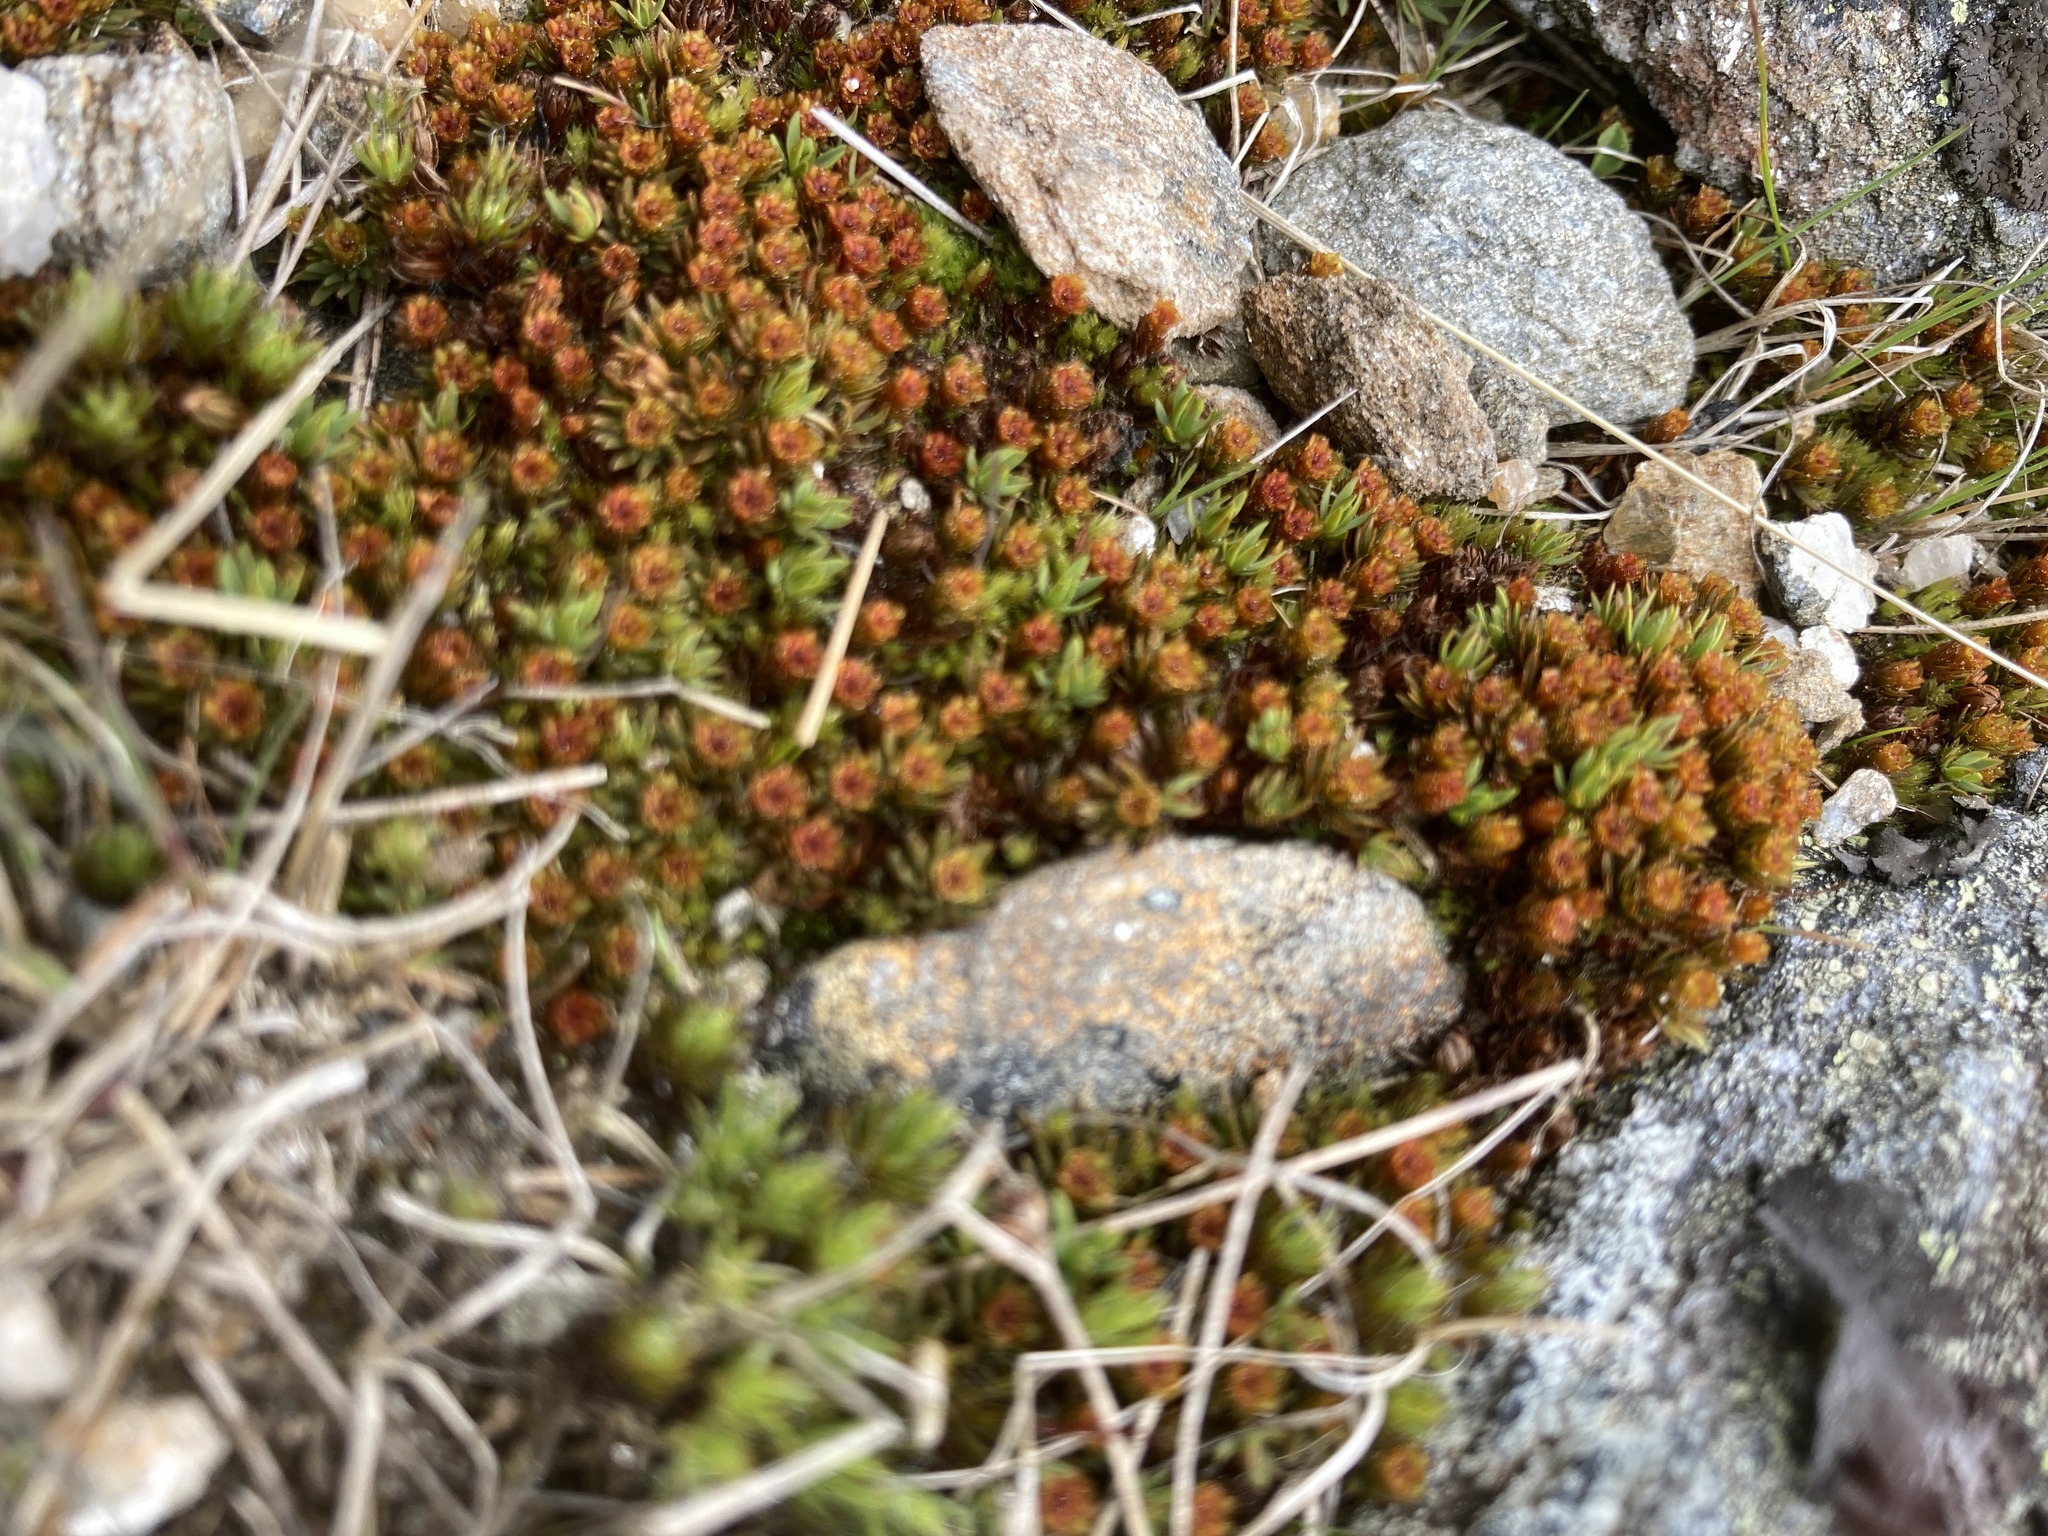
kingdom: Plantae
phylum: Bryophyta
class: Polytrichopsida
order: Polytrichales
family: Polytrichaceae
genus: Polytrichum
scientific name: Polytrichum piliferum
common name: Bristly haircap
